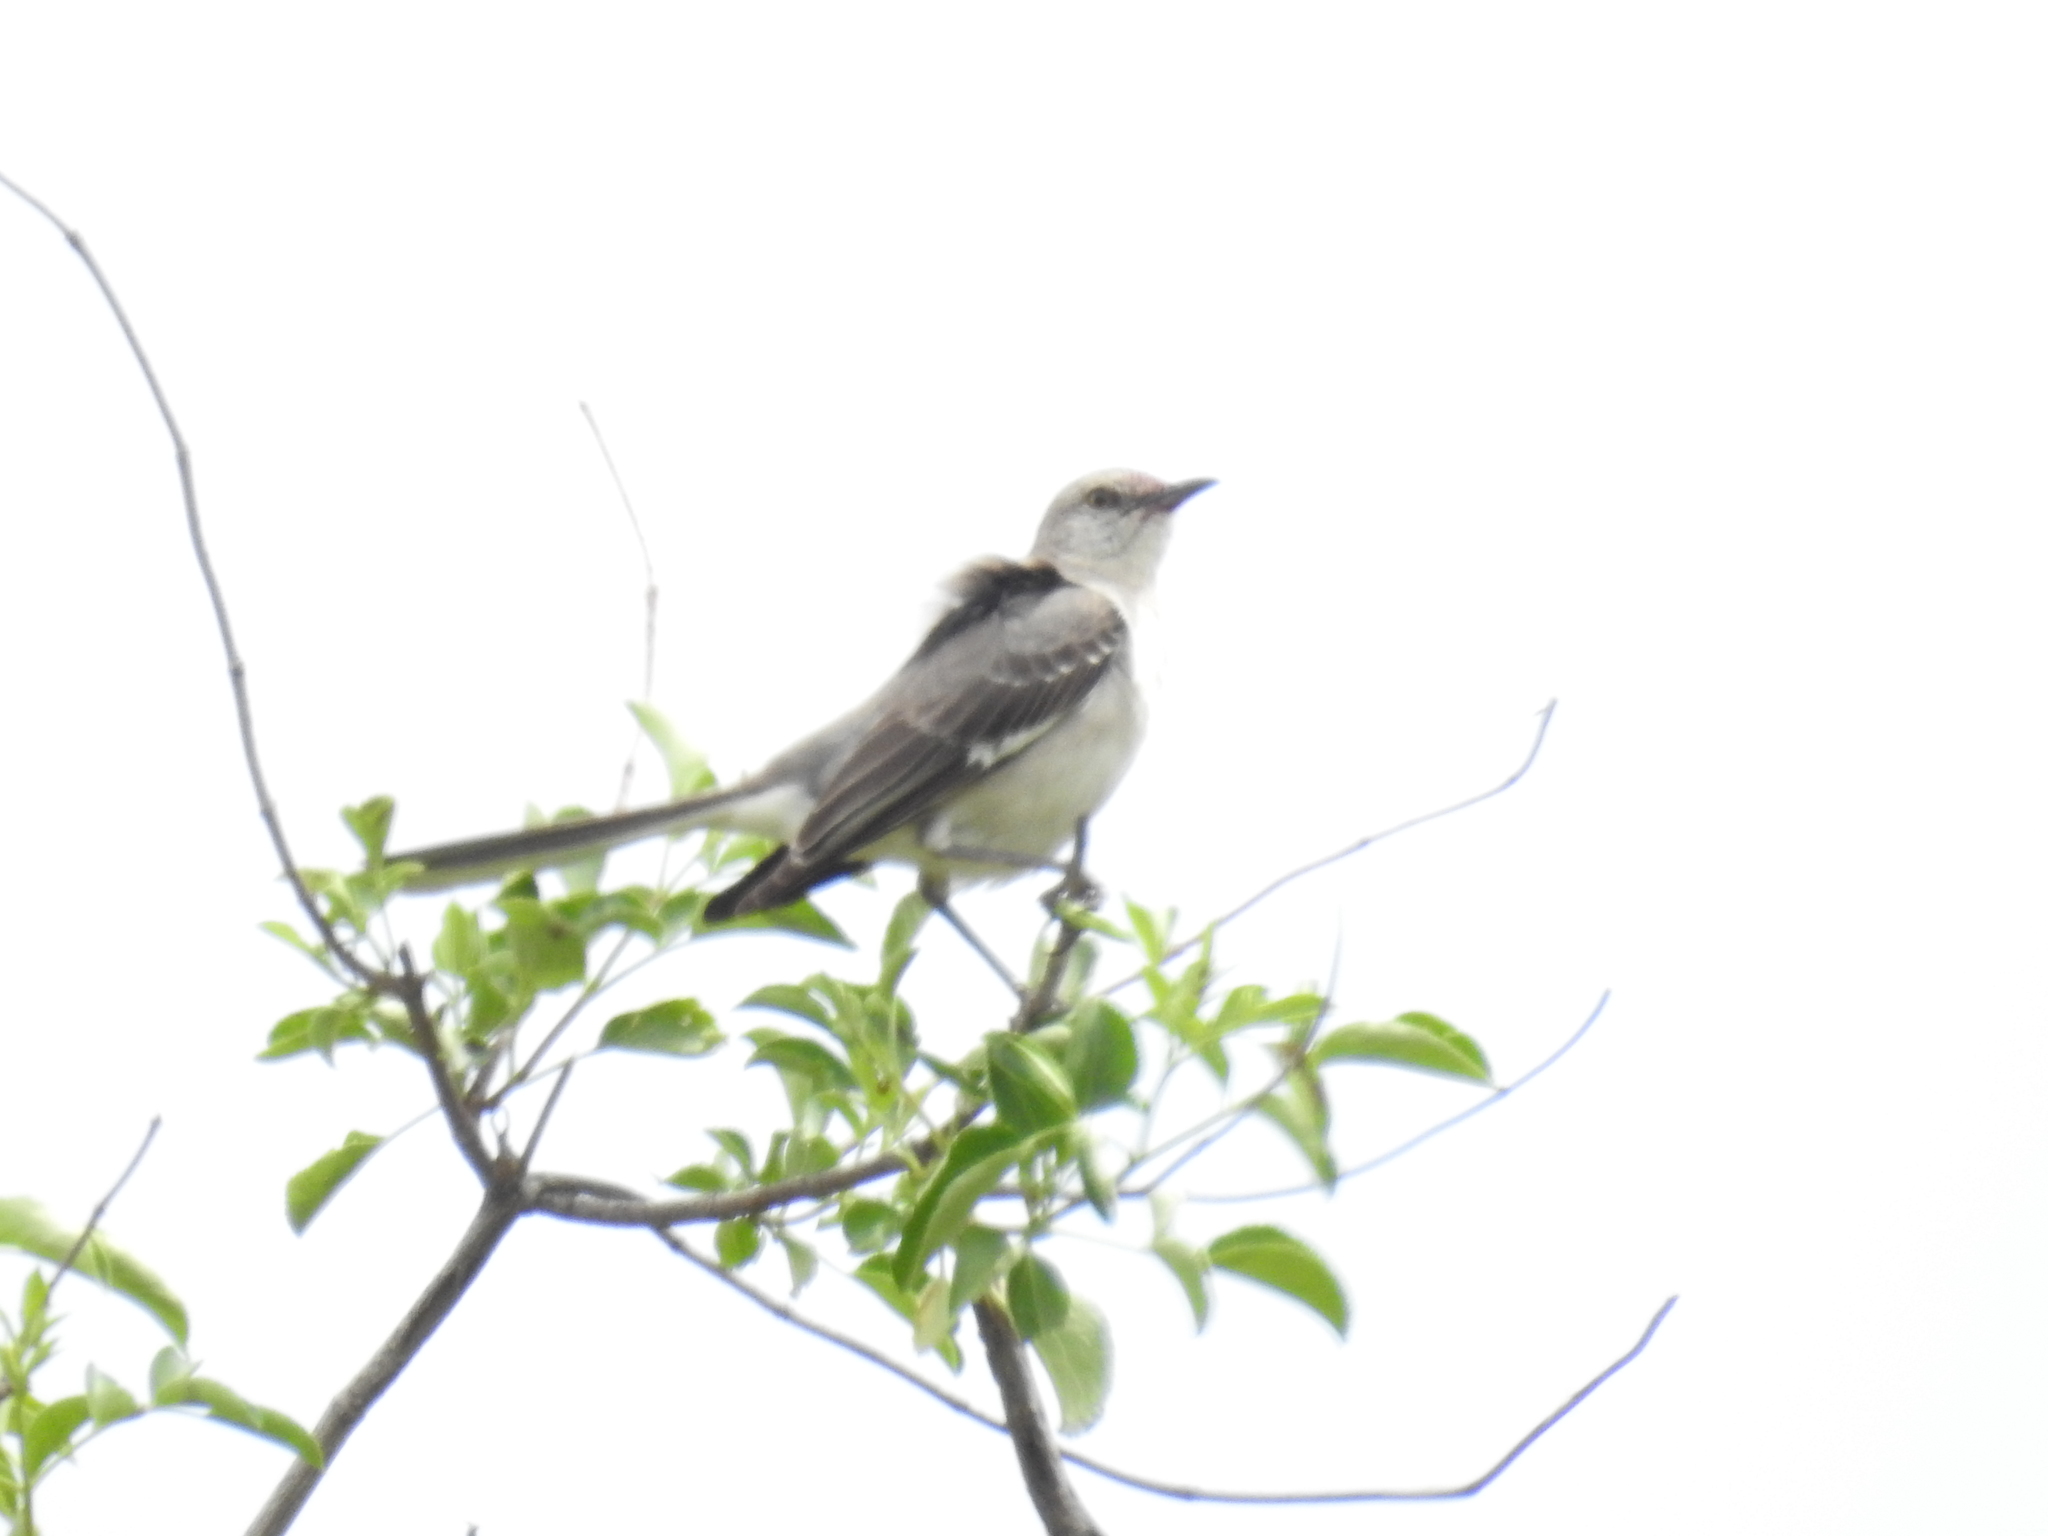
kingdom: Animalia
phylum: Chordata
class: Aves
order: Passeriformes
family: Mimidae
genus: Mimus
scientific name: Mimus polyglottos
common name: Northern mockingbird
